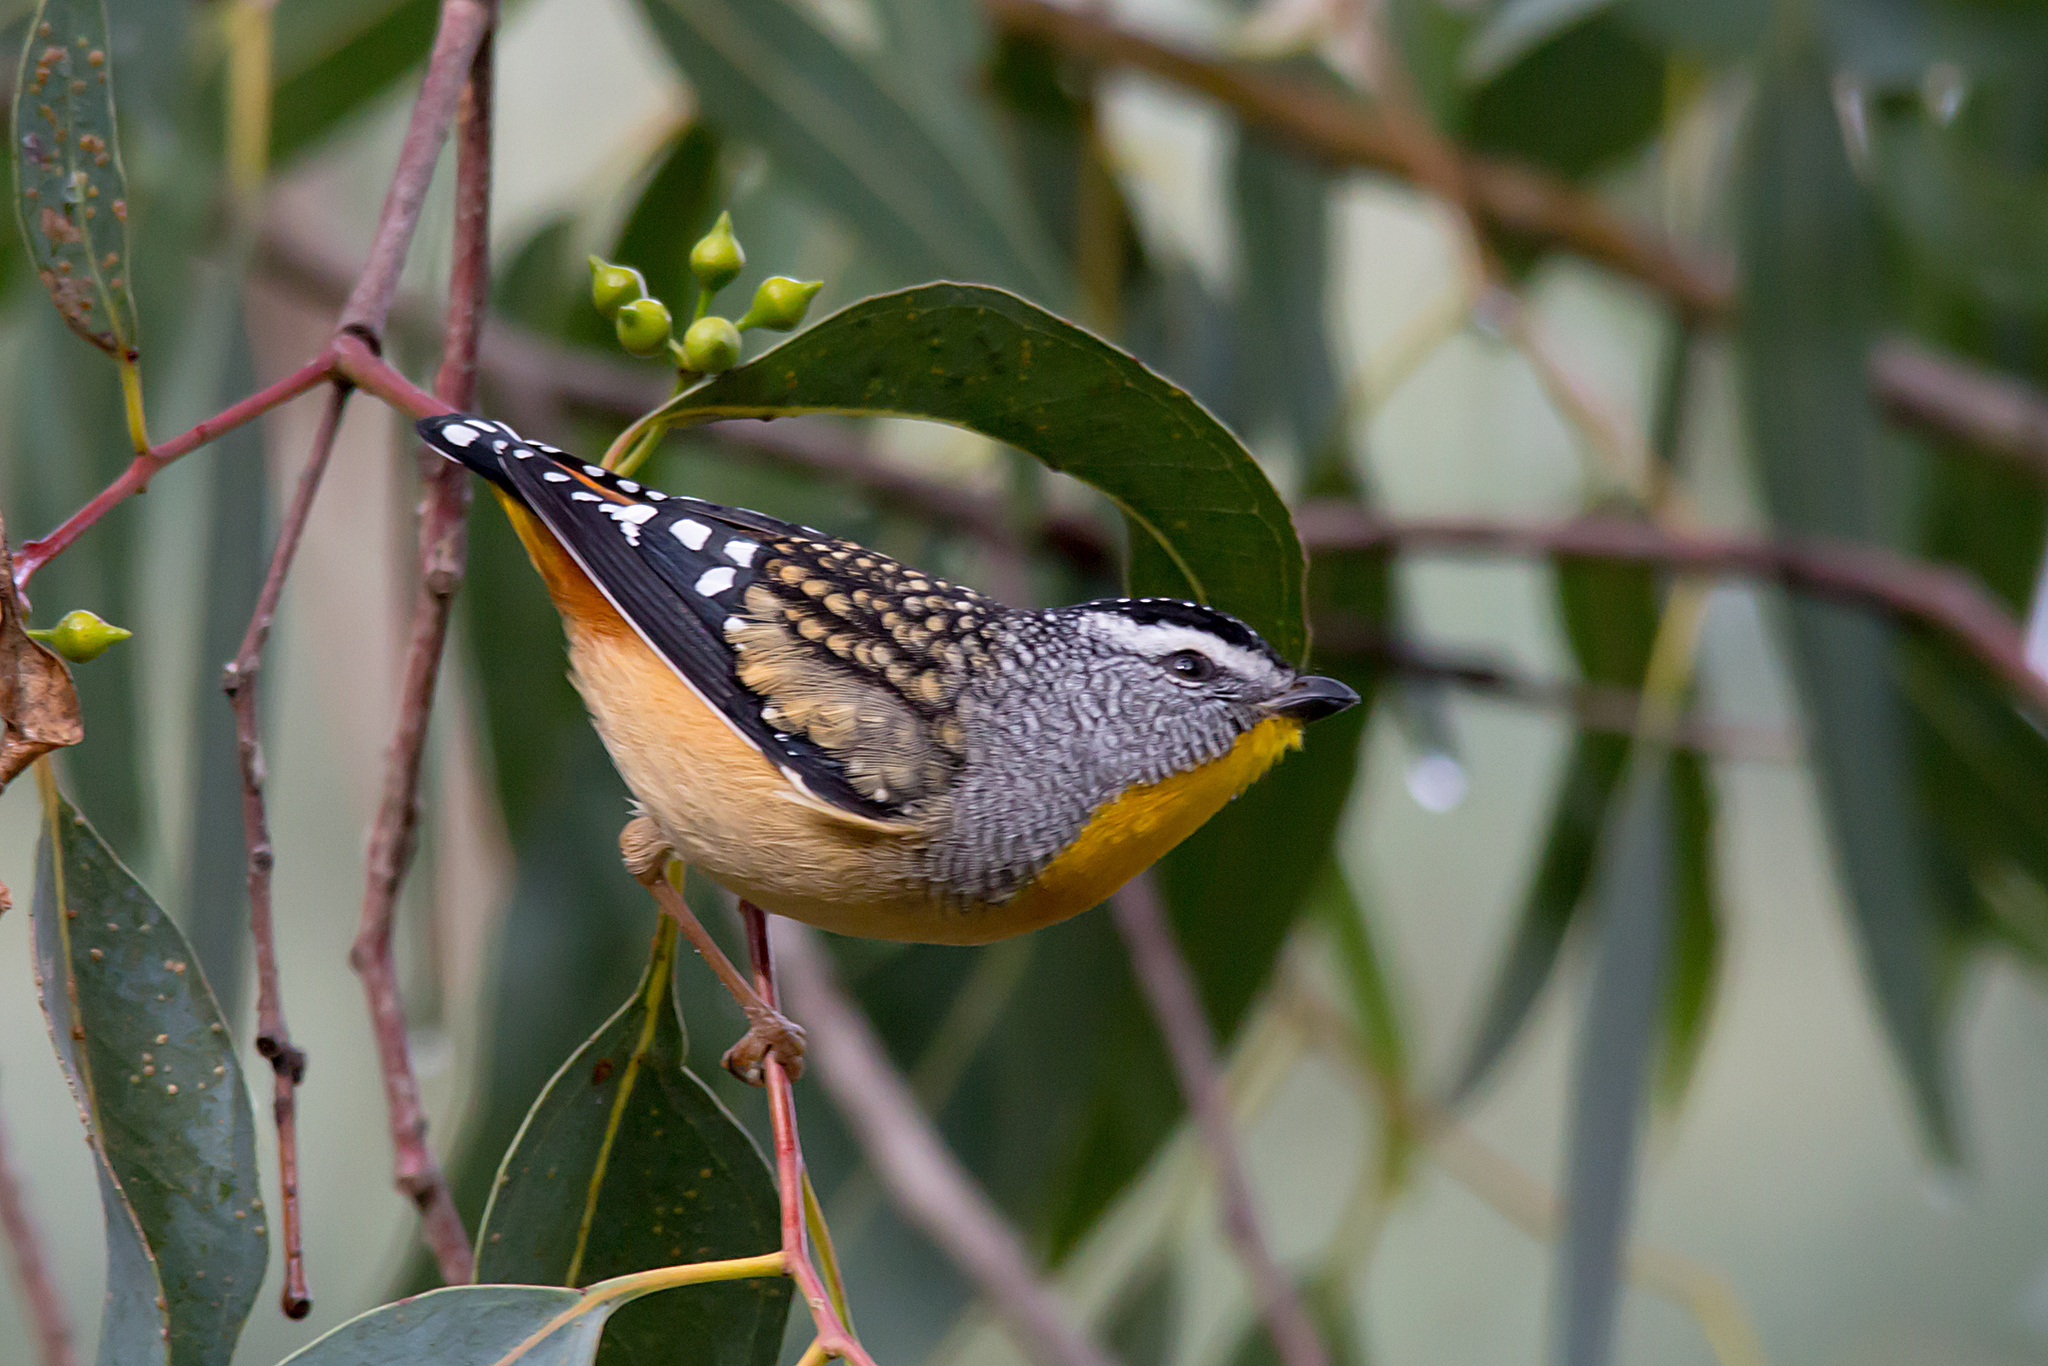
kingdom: Animalia
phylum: Chordata
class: Aves
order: Passeriformes
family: Pardalotidae
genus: Pardalotus
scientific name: Pardalotus punctatus
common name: Spotted pardalote
